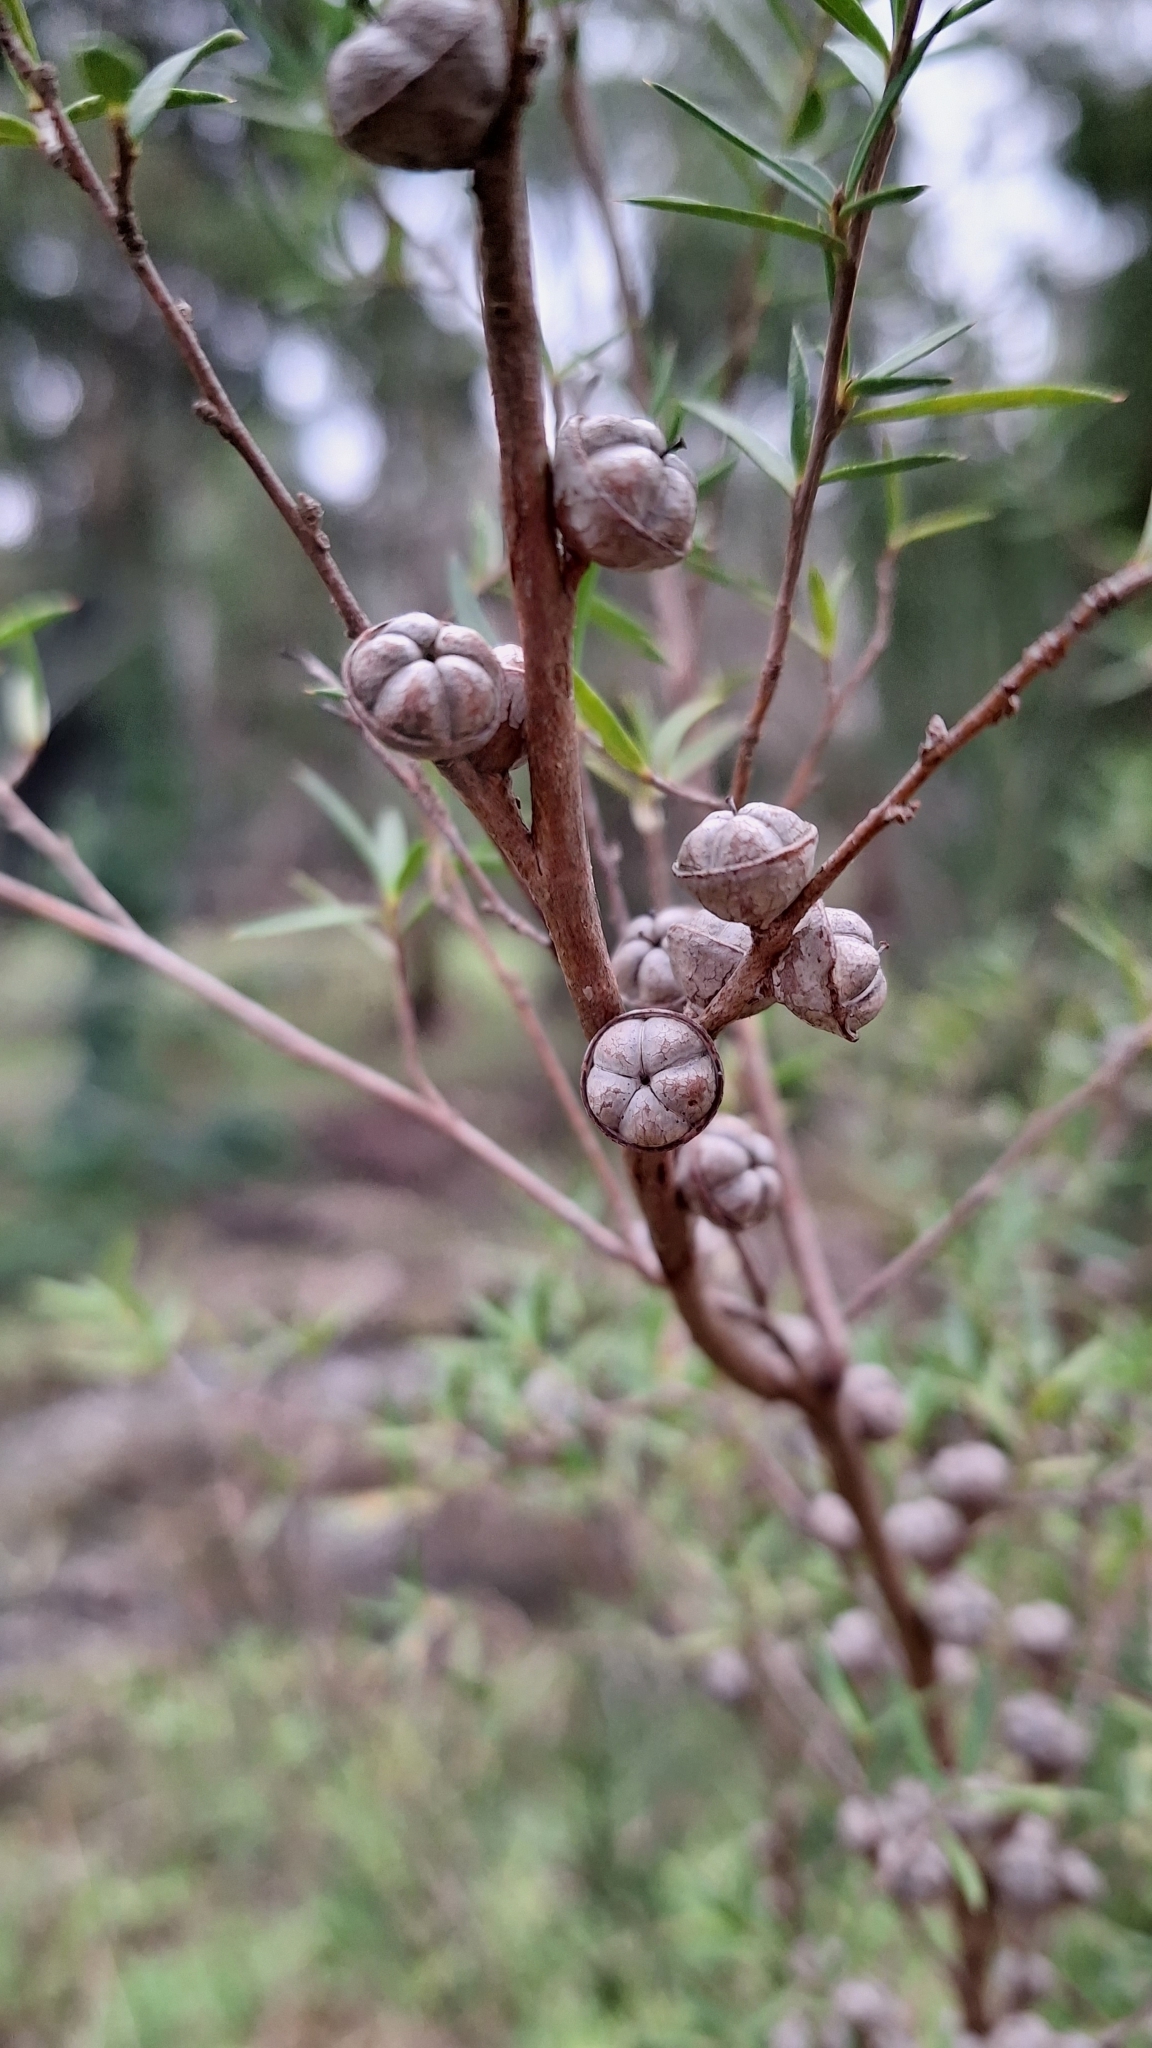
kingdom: Plantae
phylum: Tracheophyta
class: Magnoliopsida
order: Myrtales
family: Myrtaceae
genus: Leptospermum
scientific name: Leptospermum continentale
